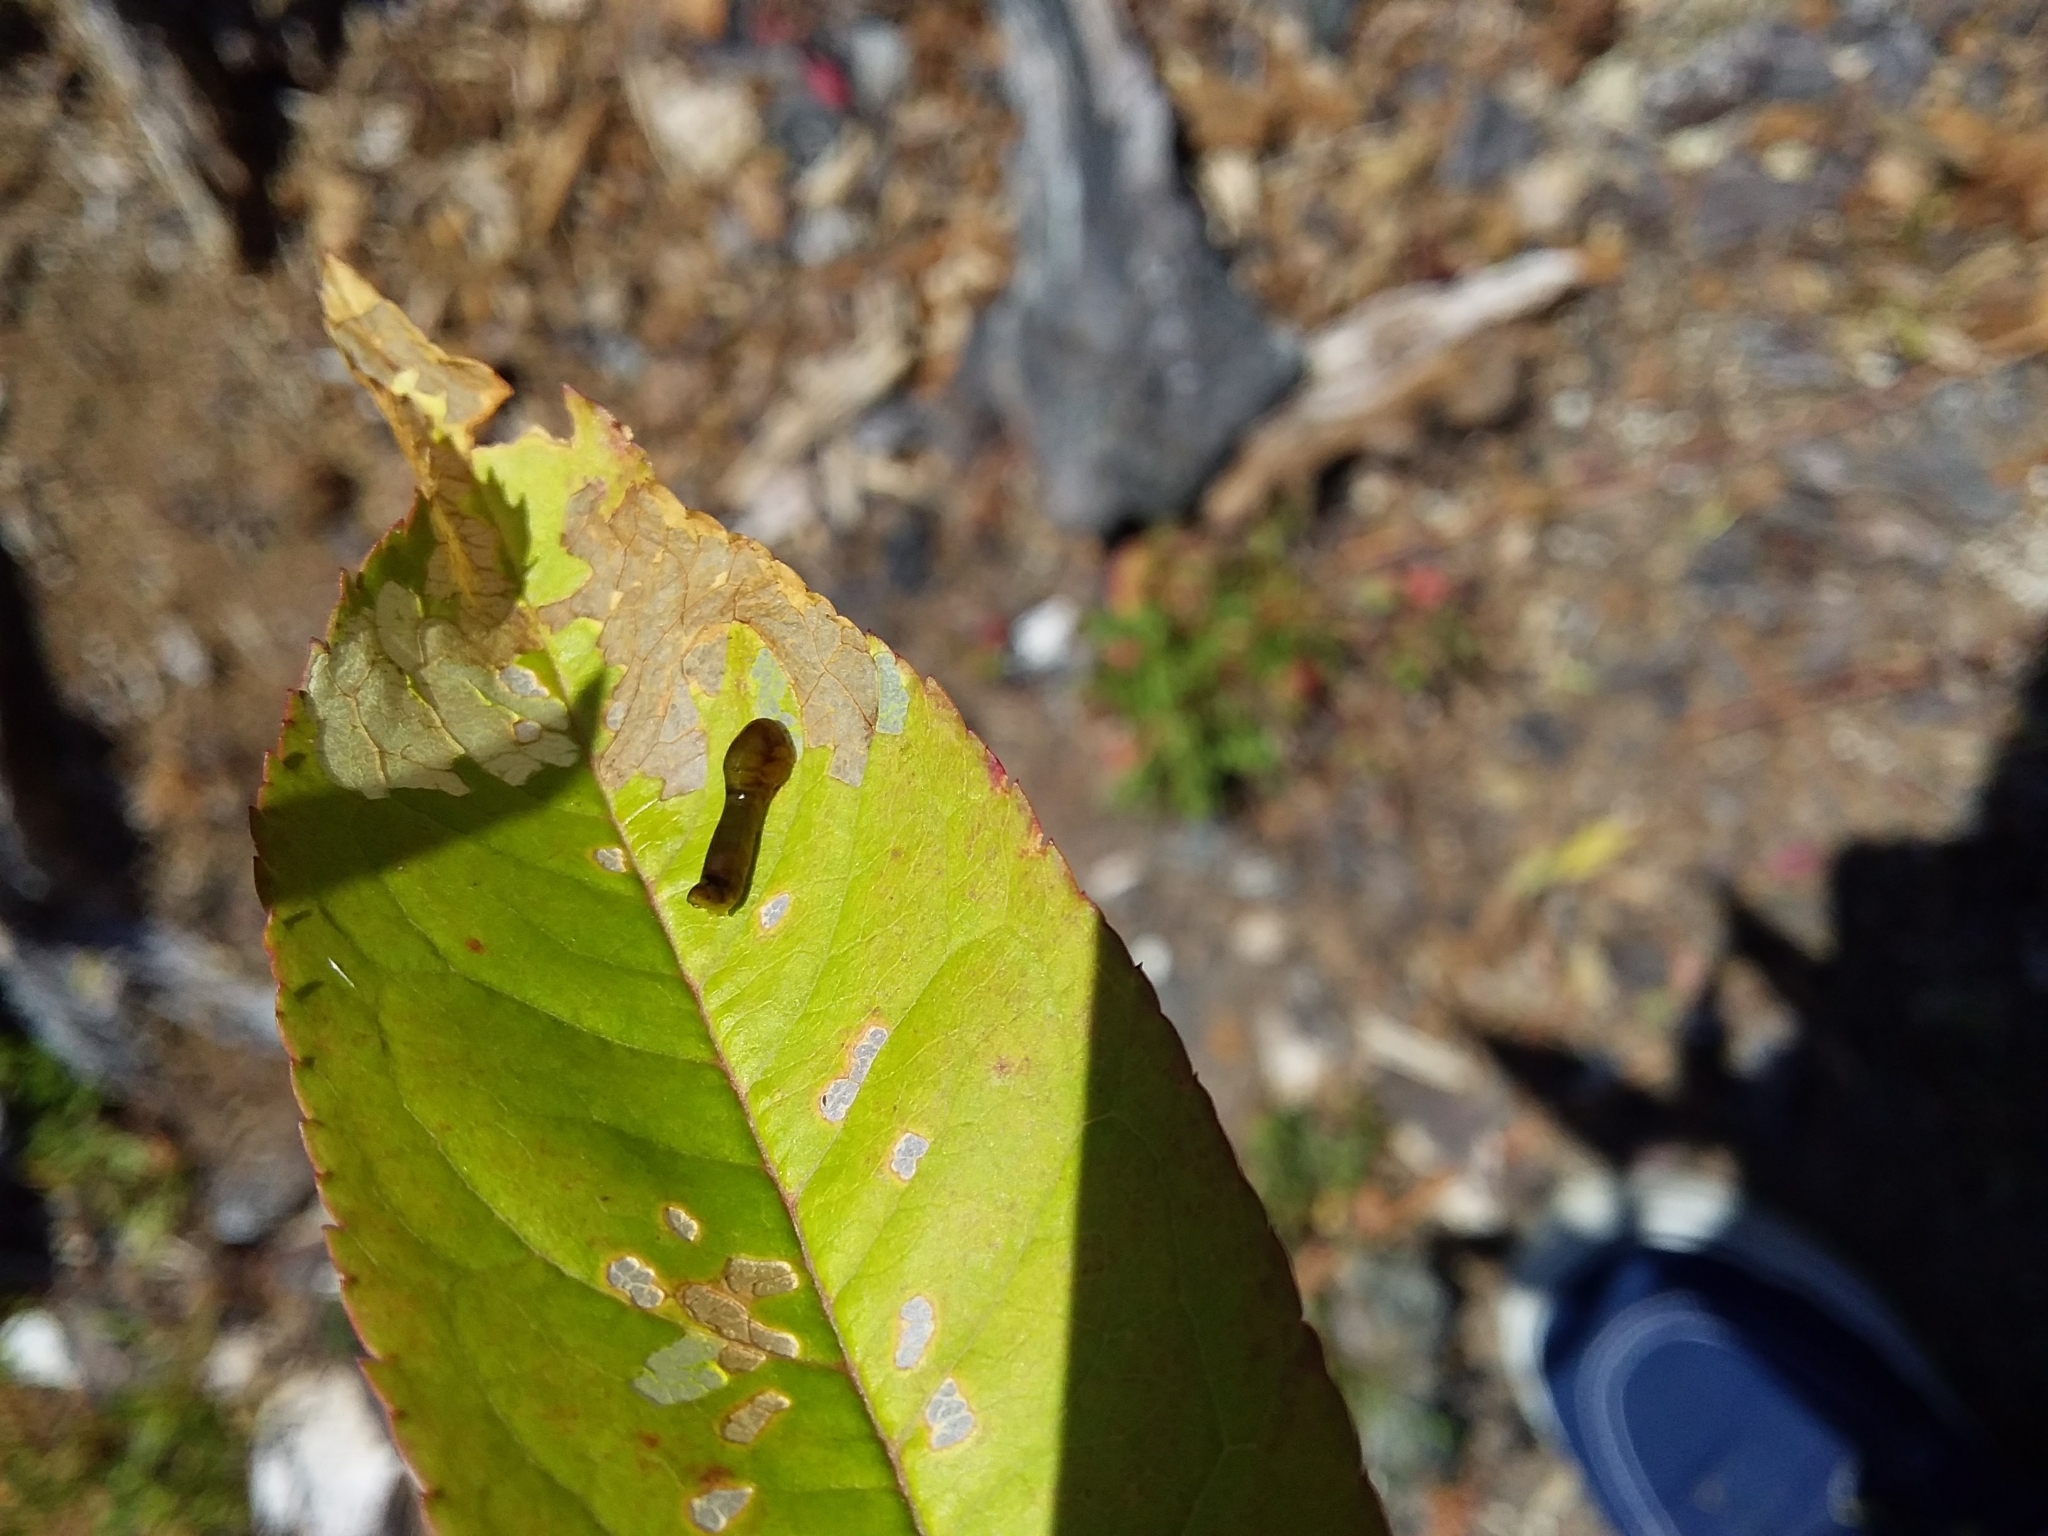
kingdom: Animalia
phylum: Arthropoda
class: Insecta
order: Hymenoptera
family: Tenthredinidae
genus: Caliroa
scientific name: Caliroa cerasi
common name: Pear sawfly
